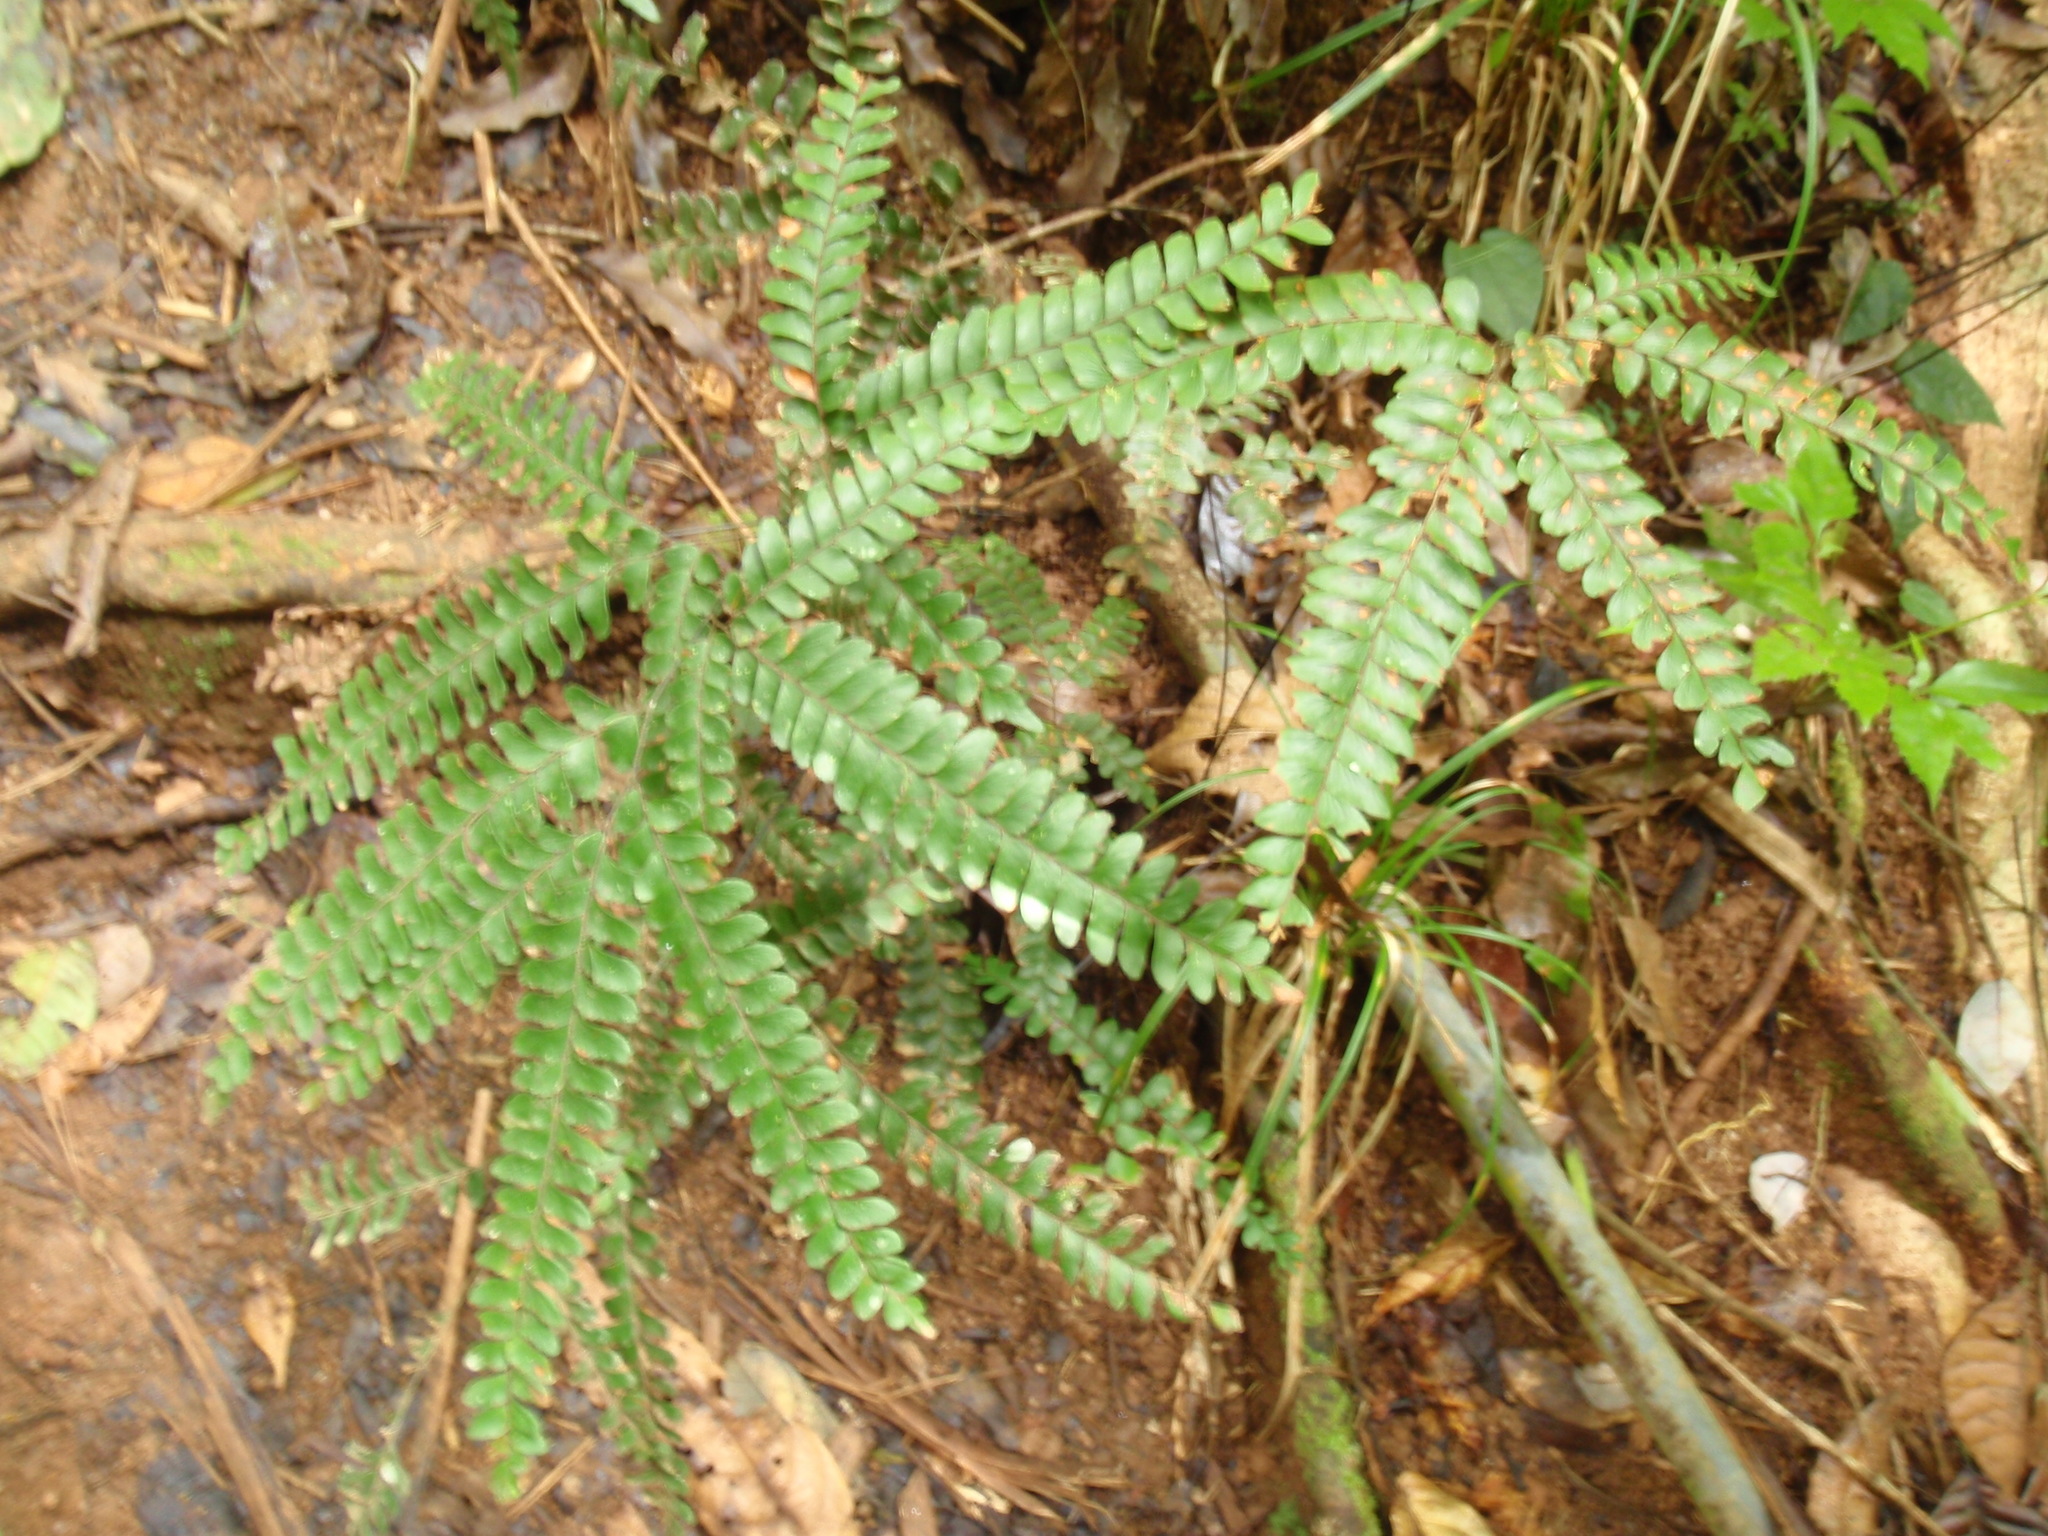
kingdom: Plantae
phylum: Tracheophyta
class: Polypodiopsida
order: Polypodiales
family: Pteridaceae
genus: Adiantum
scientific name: Adiantum hispidulum
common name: Rough maidenhair
